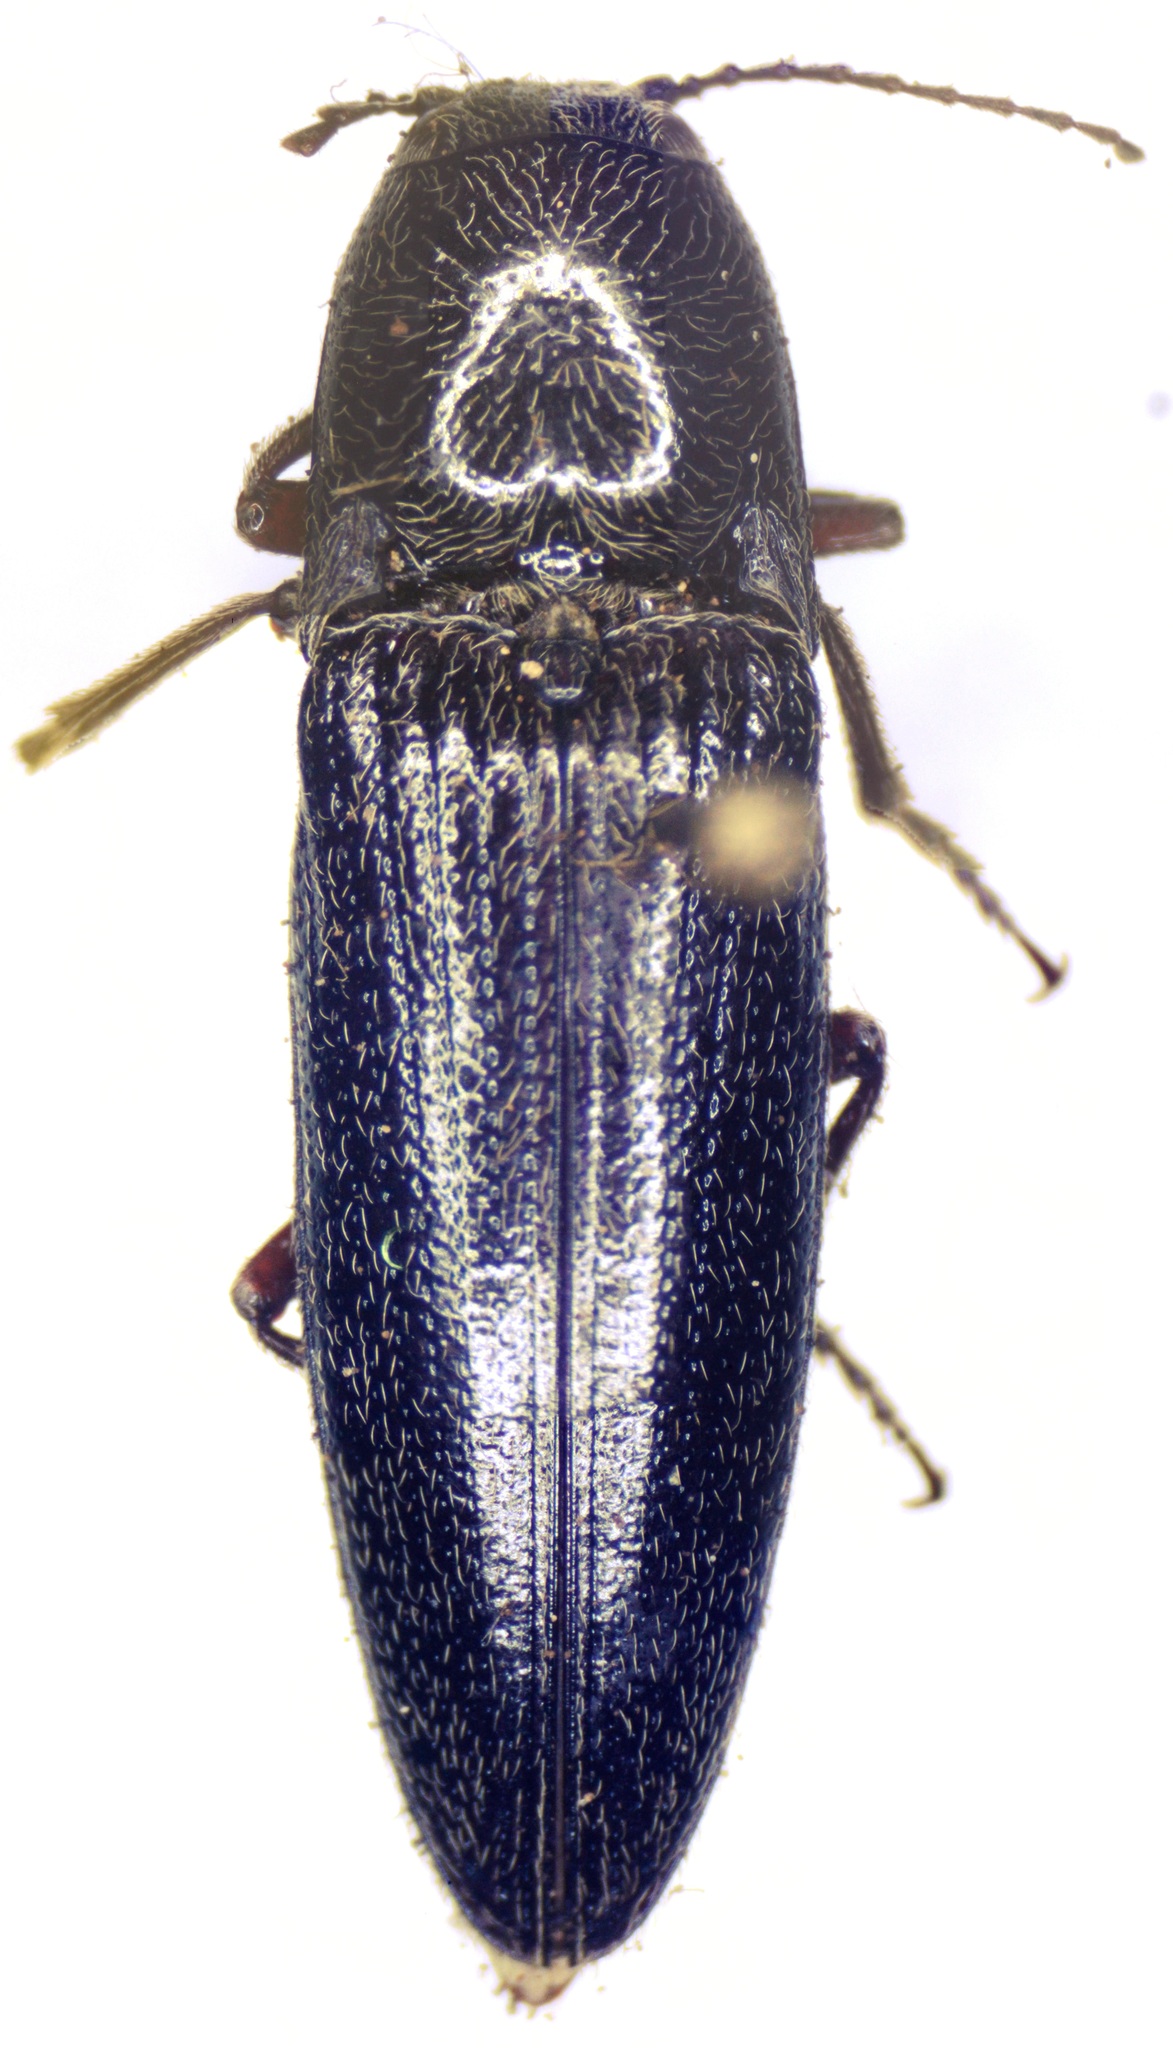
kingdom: Animalia
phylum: Arthropoda
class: Insecta
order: Coleoptera
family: Elateridae
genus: Melanotus
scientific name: Melanotus
